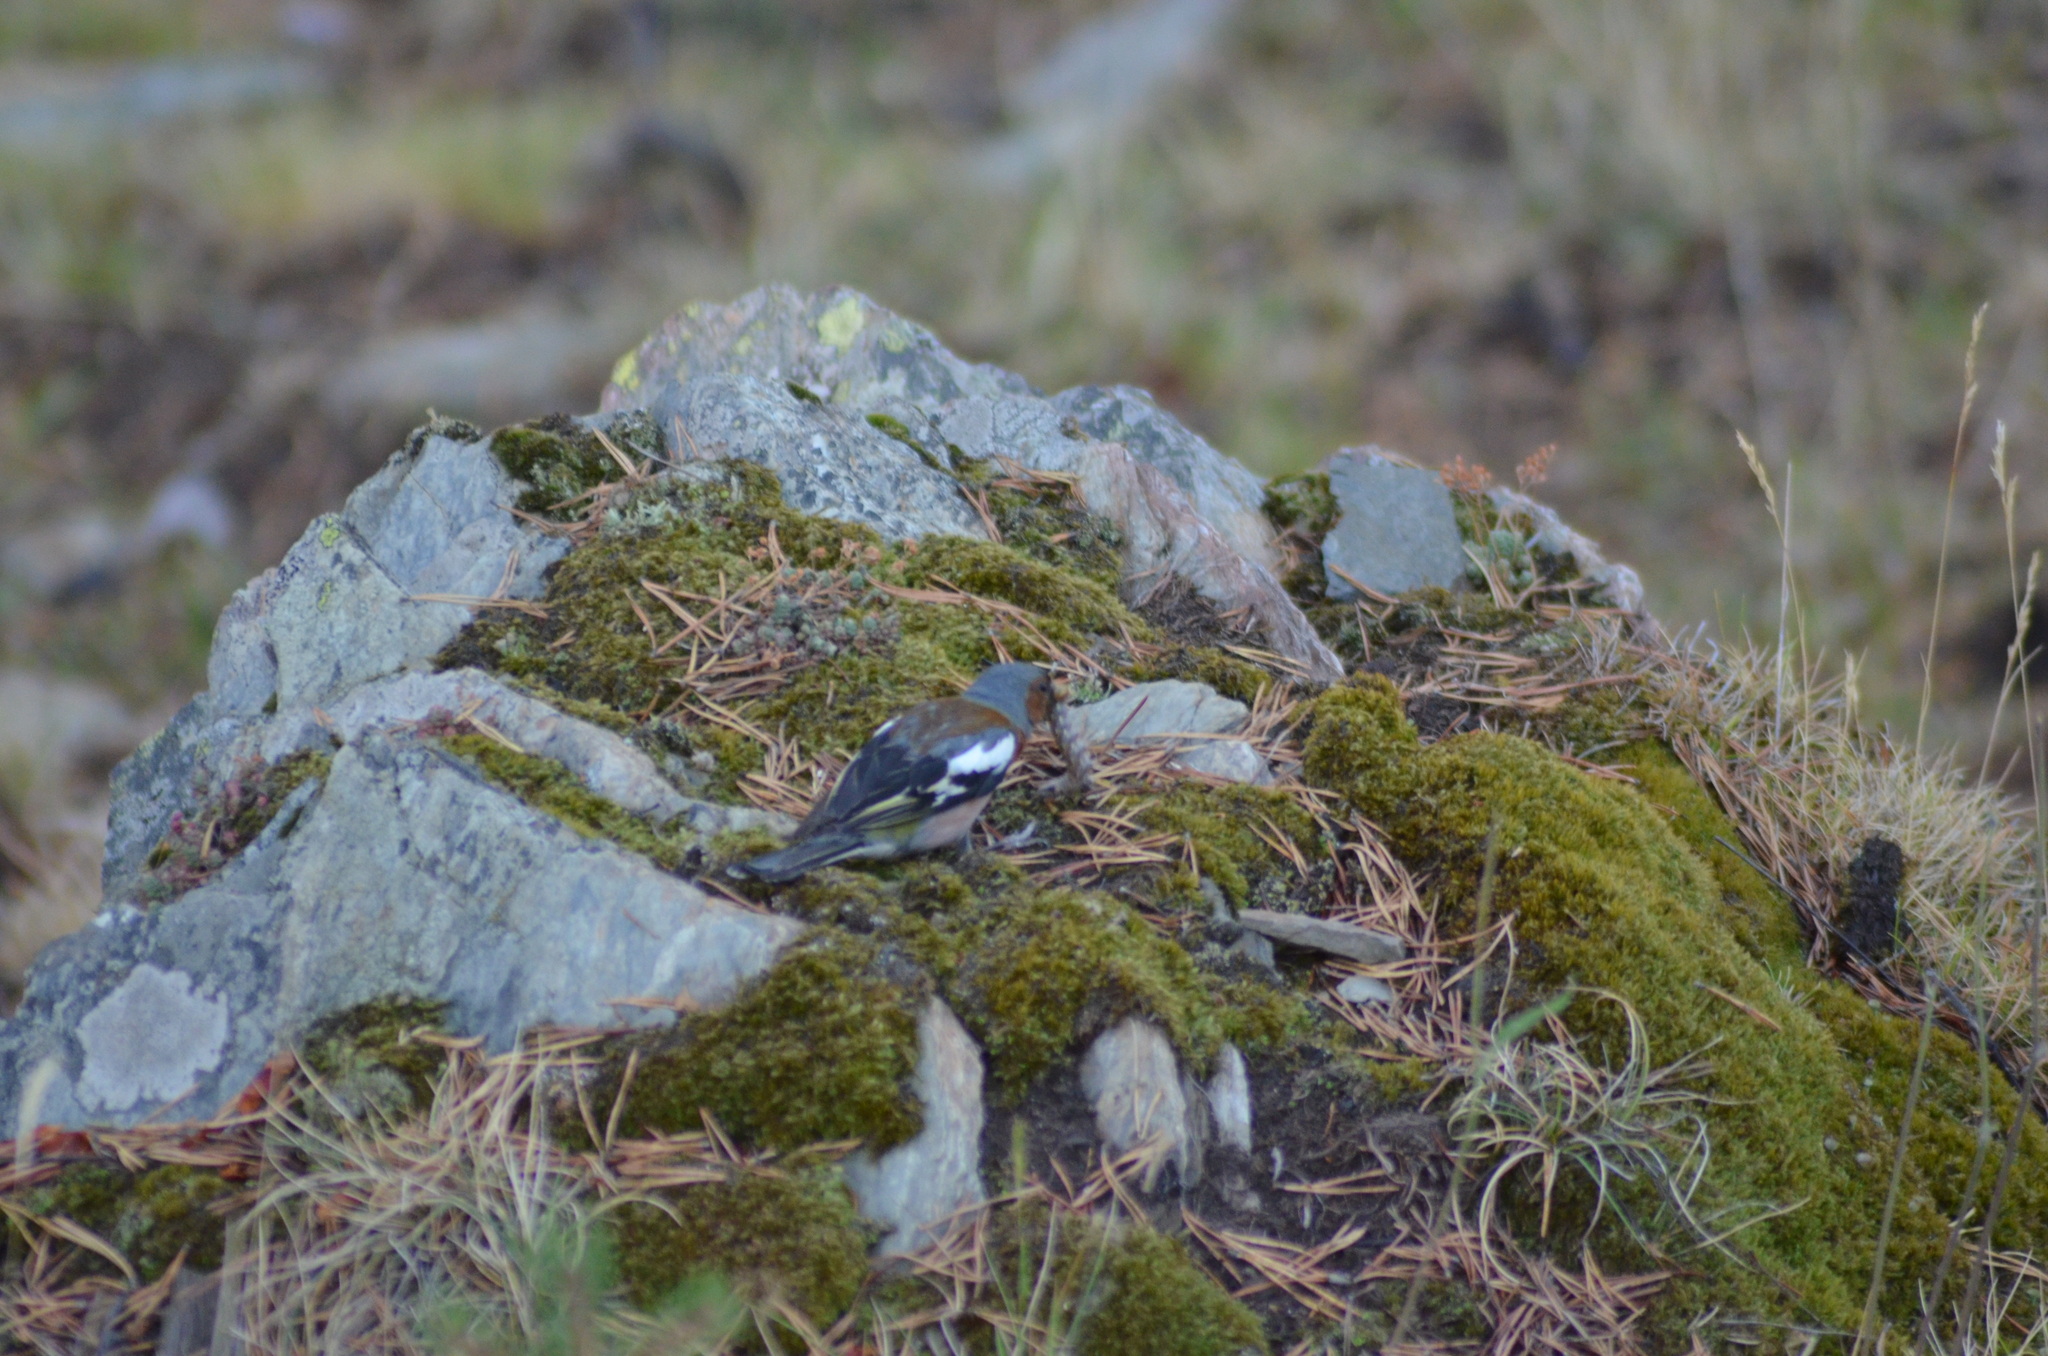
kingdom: Animalia
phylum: Chordata
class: Aves
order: Passeriformes
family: Fringillidae
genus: Fringilla
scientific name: Fringilla coelebs
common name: Common chaffinch
